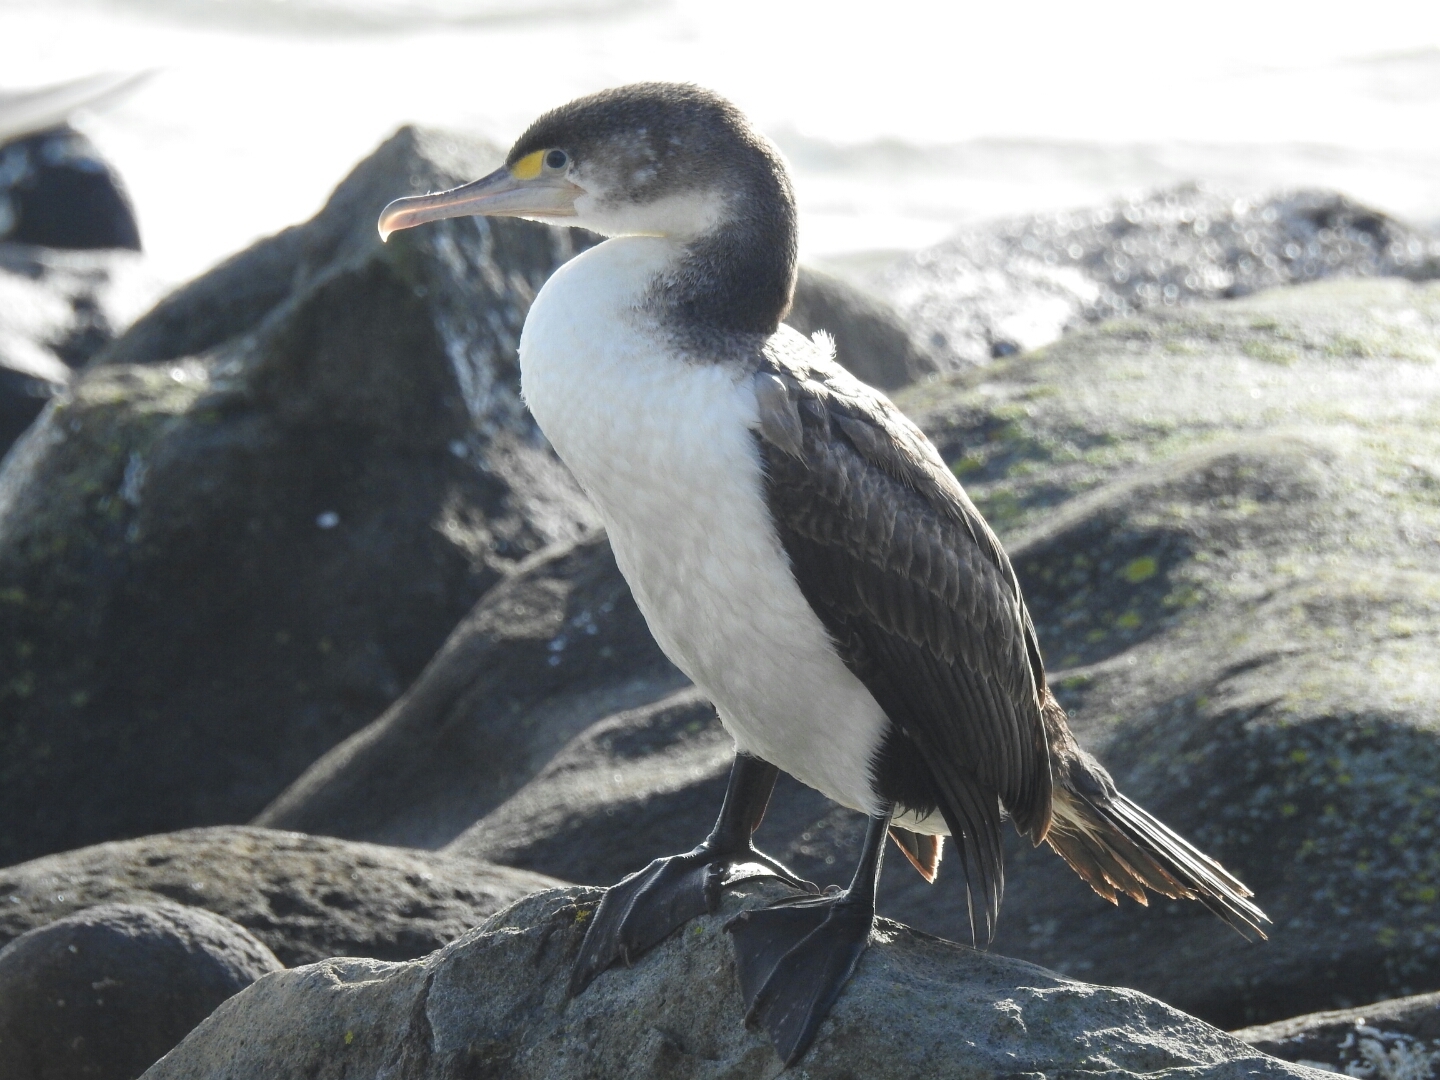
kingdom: Animalia
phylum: Chordata
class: Aves
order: Suliformes
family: Phalacrocoracidae
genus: Phalacrocorax
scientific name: Phalacrocorax varius
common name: Pied cormorant
